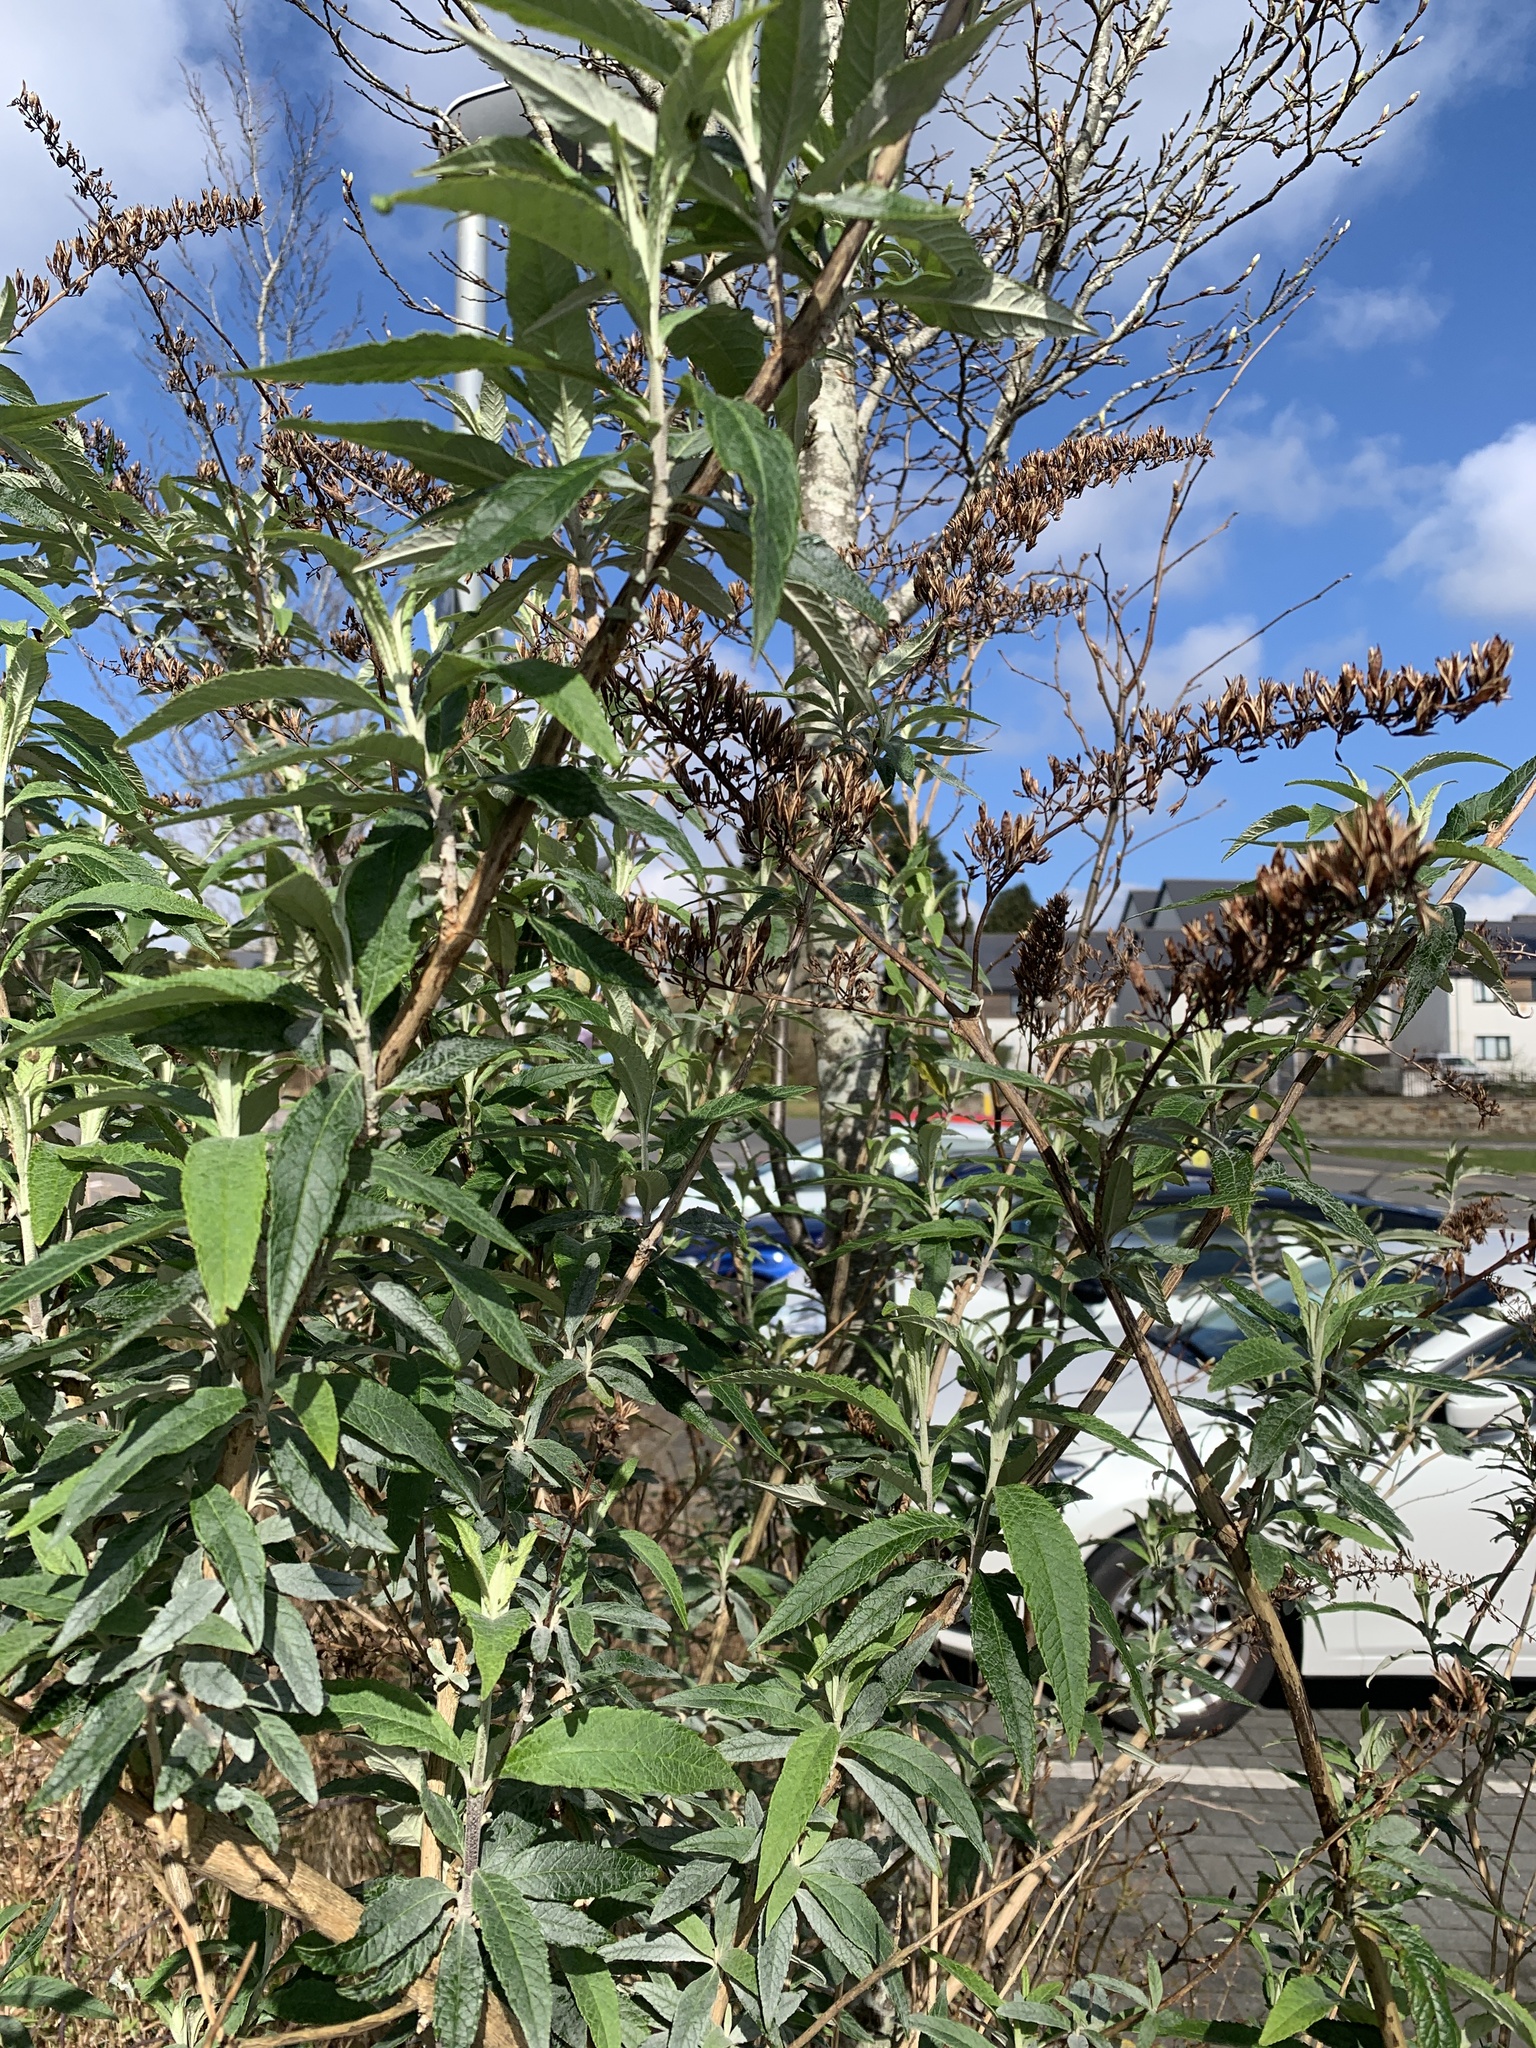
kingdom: Plantae
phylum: Tracheophyta
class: Magnoliopsida
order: Lamiales
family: Scrophulariaceae
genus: Buddleja
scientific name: Buddleja davidii
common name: Butterfly-bush
